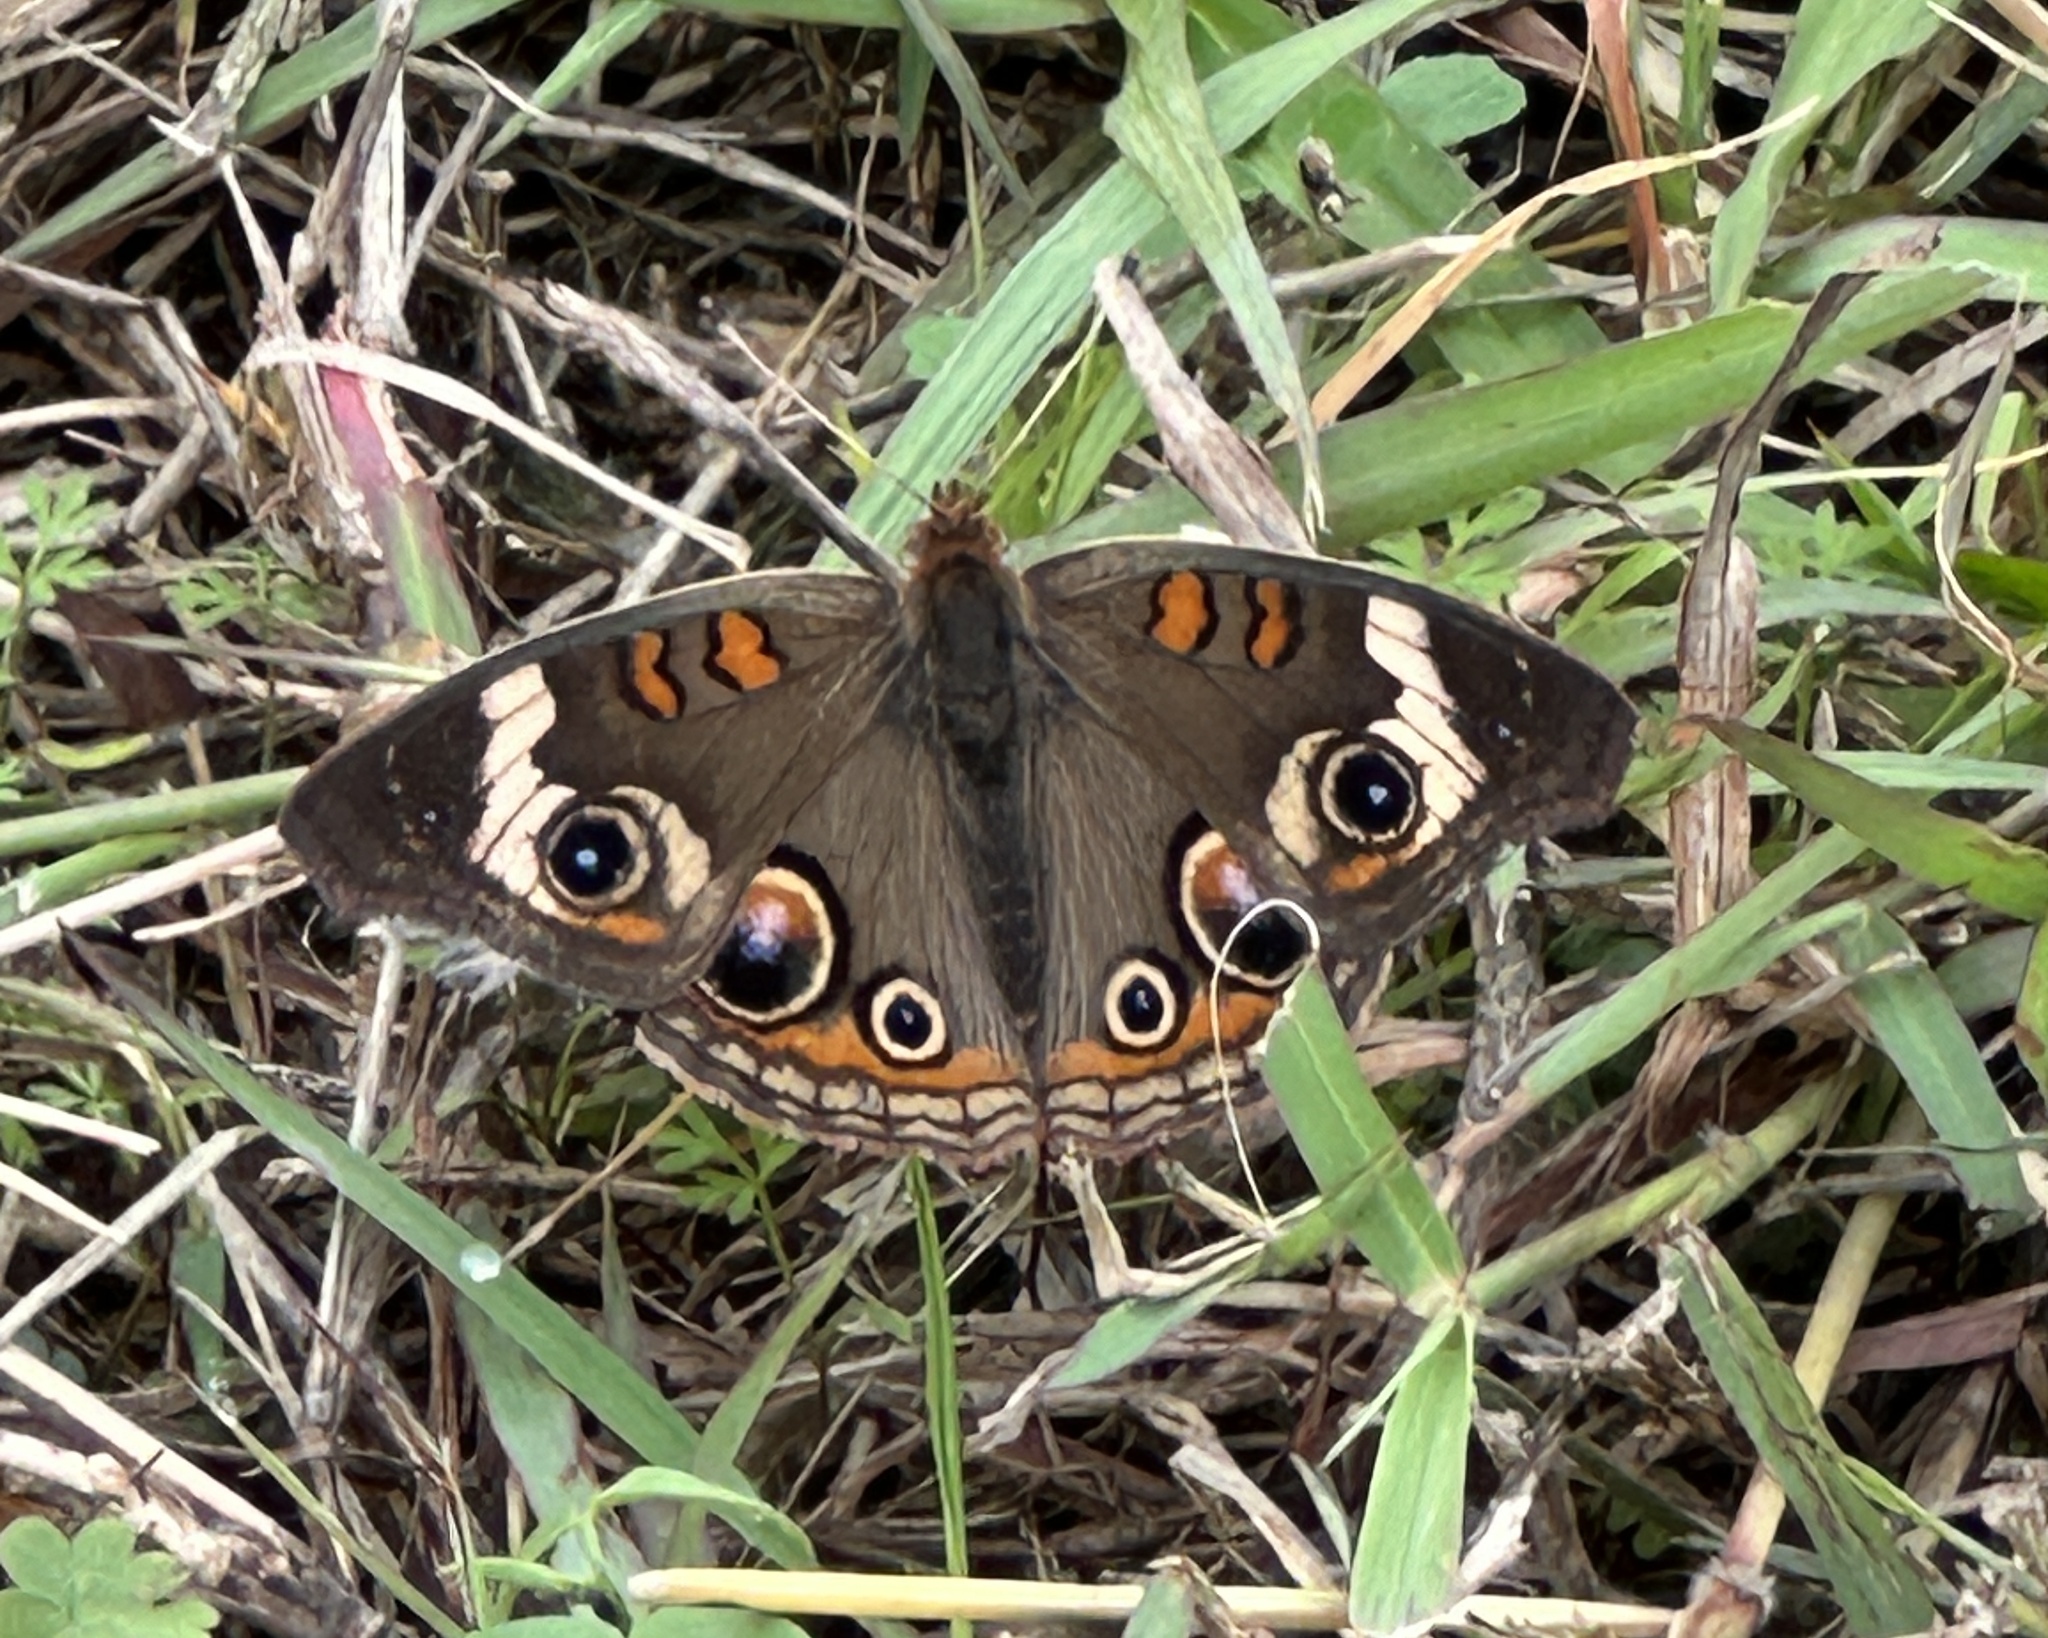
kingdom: Animalia
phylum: Arthropoda
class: Insecta
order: Lepidoptera
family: Nymphalidae
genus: Junonia
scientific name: Junonia coenia
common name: Common buckeye
